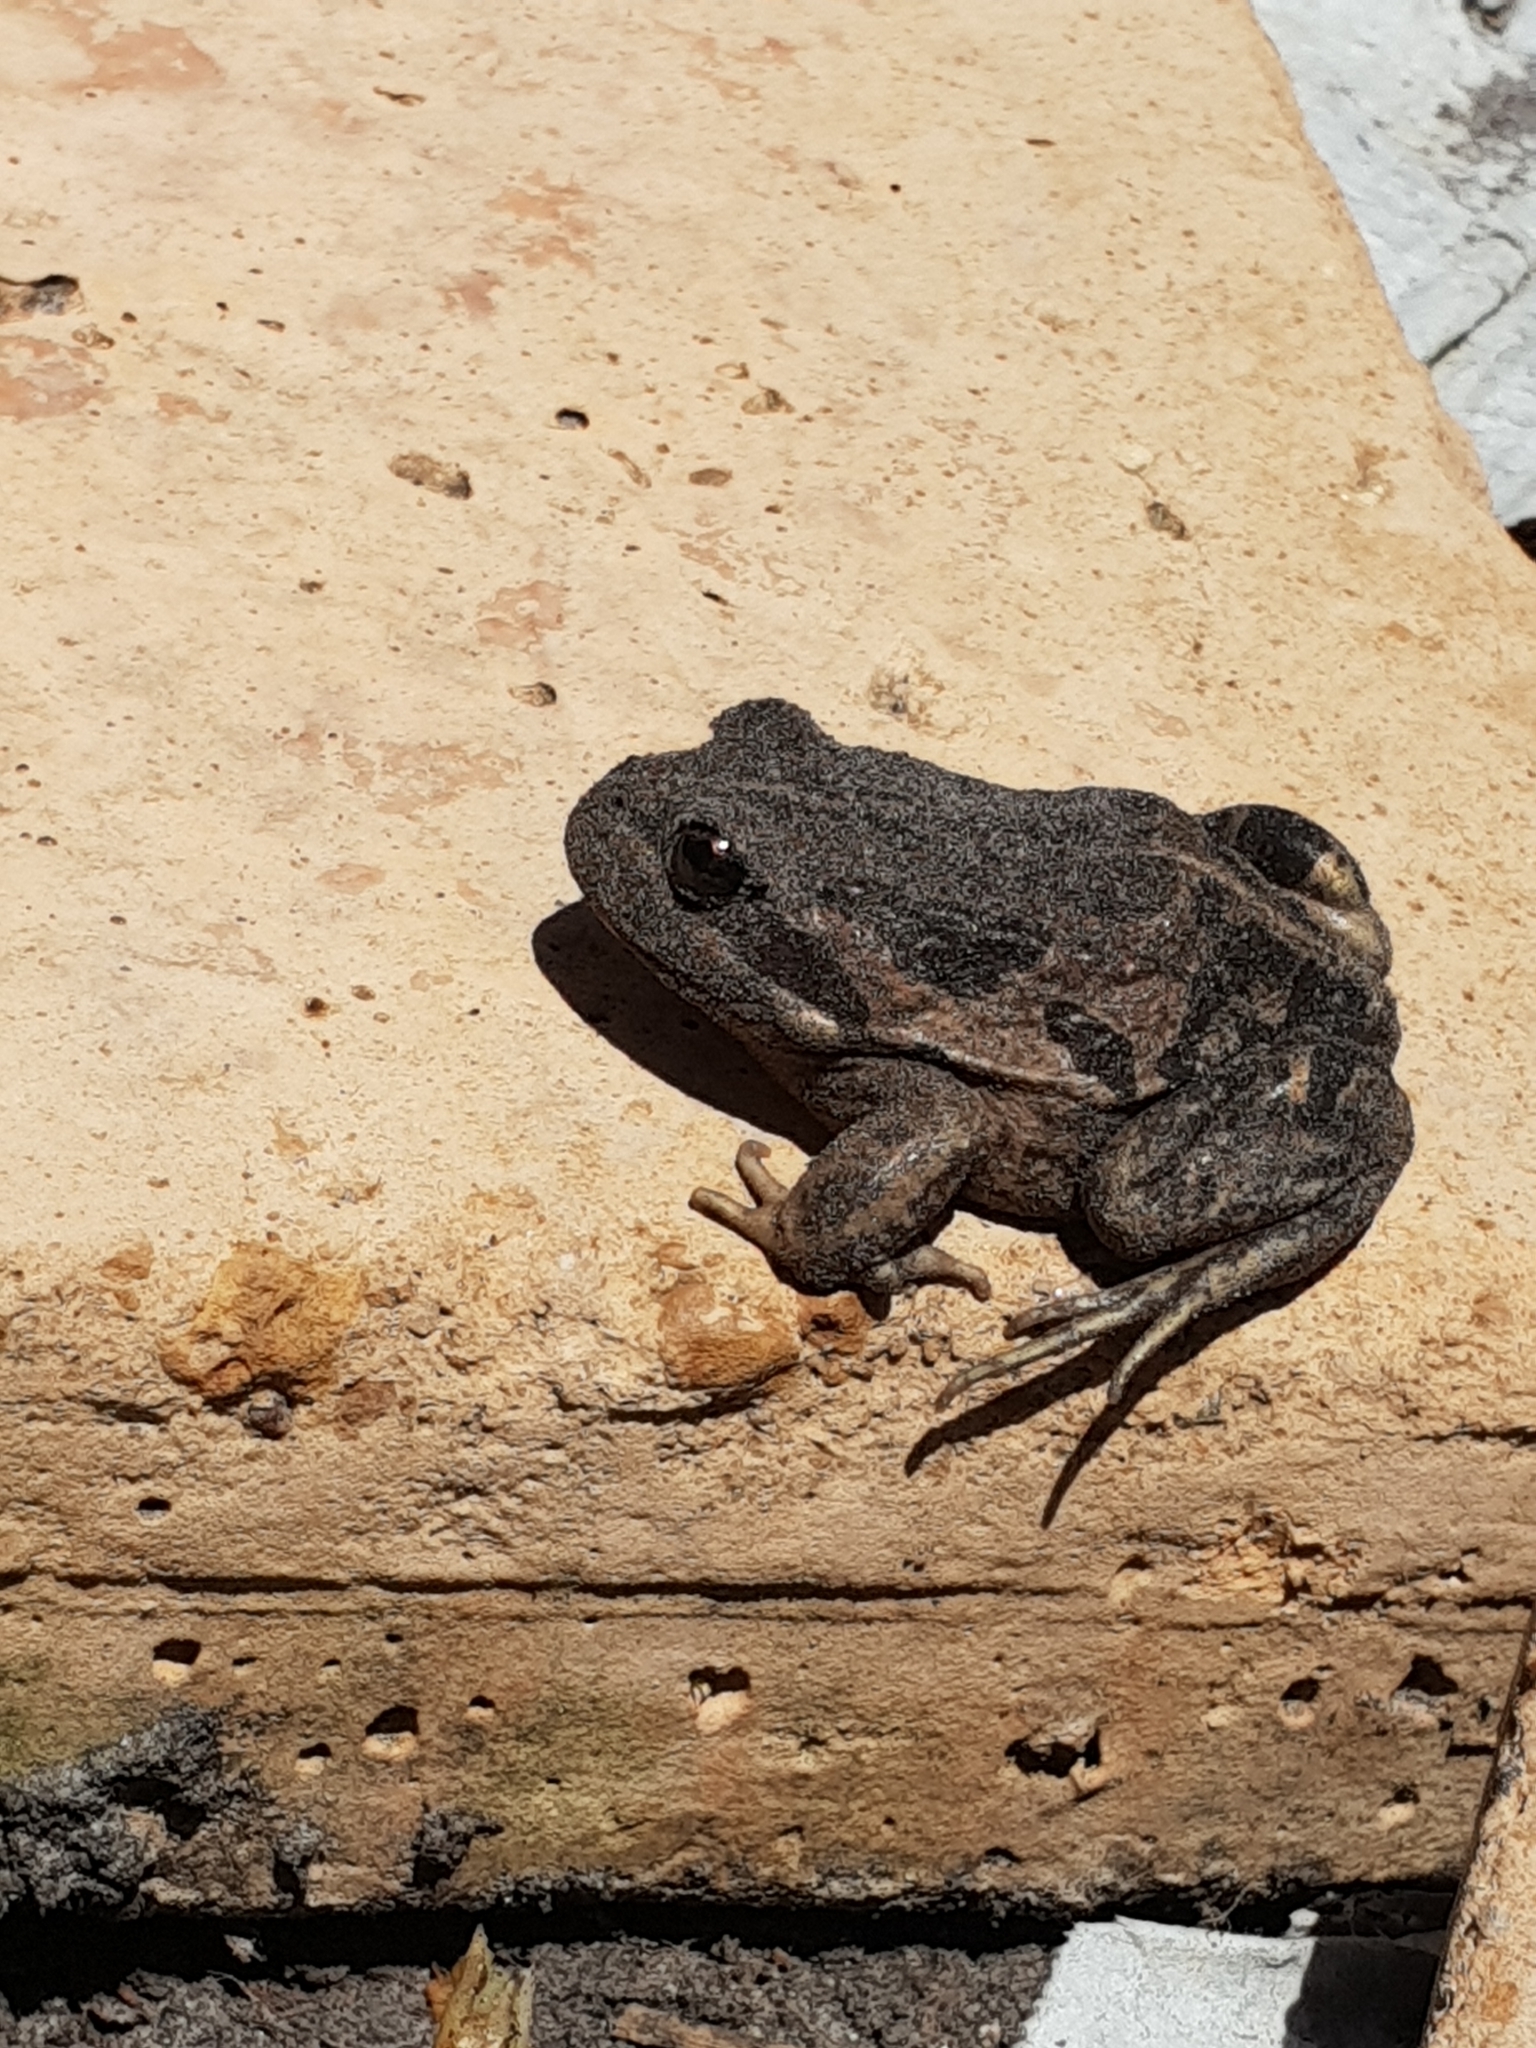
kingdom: Animalia
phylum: Chordata
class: Amphibia
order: Anura
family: Limnodynastidae
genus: Limnodynastes
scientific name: Limnodynastes dorsalis
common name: Banjo frog
